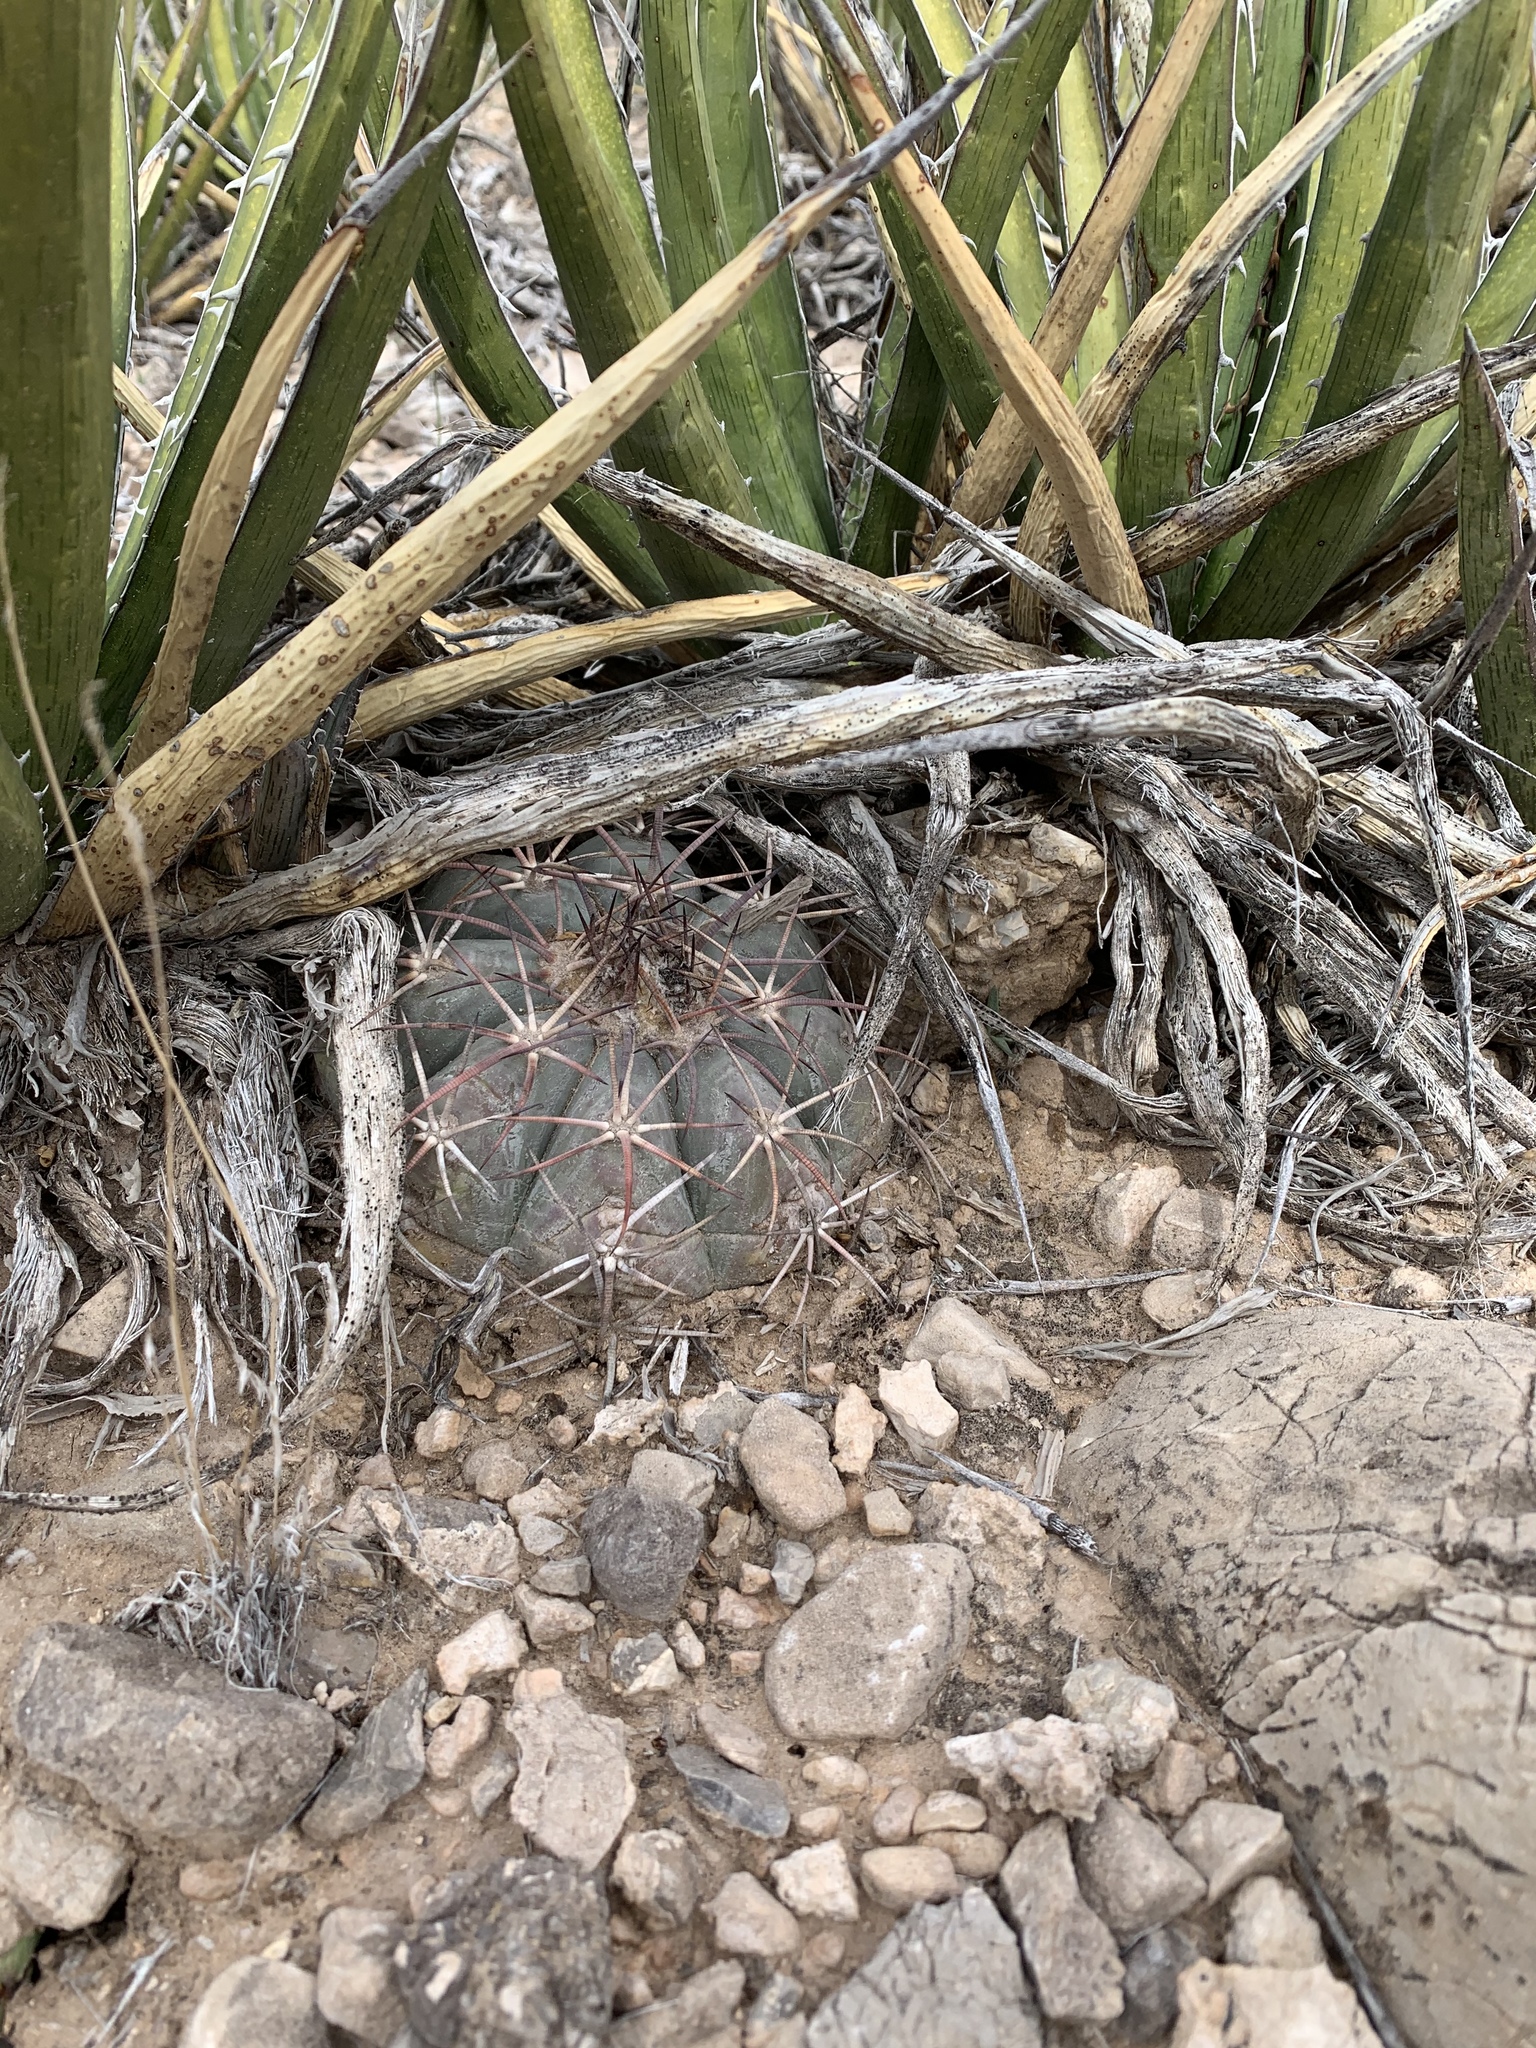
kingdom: Plantae
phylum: Tracheophyta
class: Magnoliopsida
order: Caryophyllales
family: Cactaceae
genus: Echinocactus
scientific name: Echinocactus horizonthalonius
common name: Devilshead
